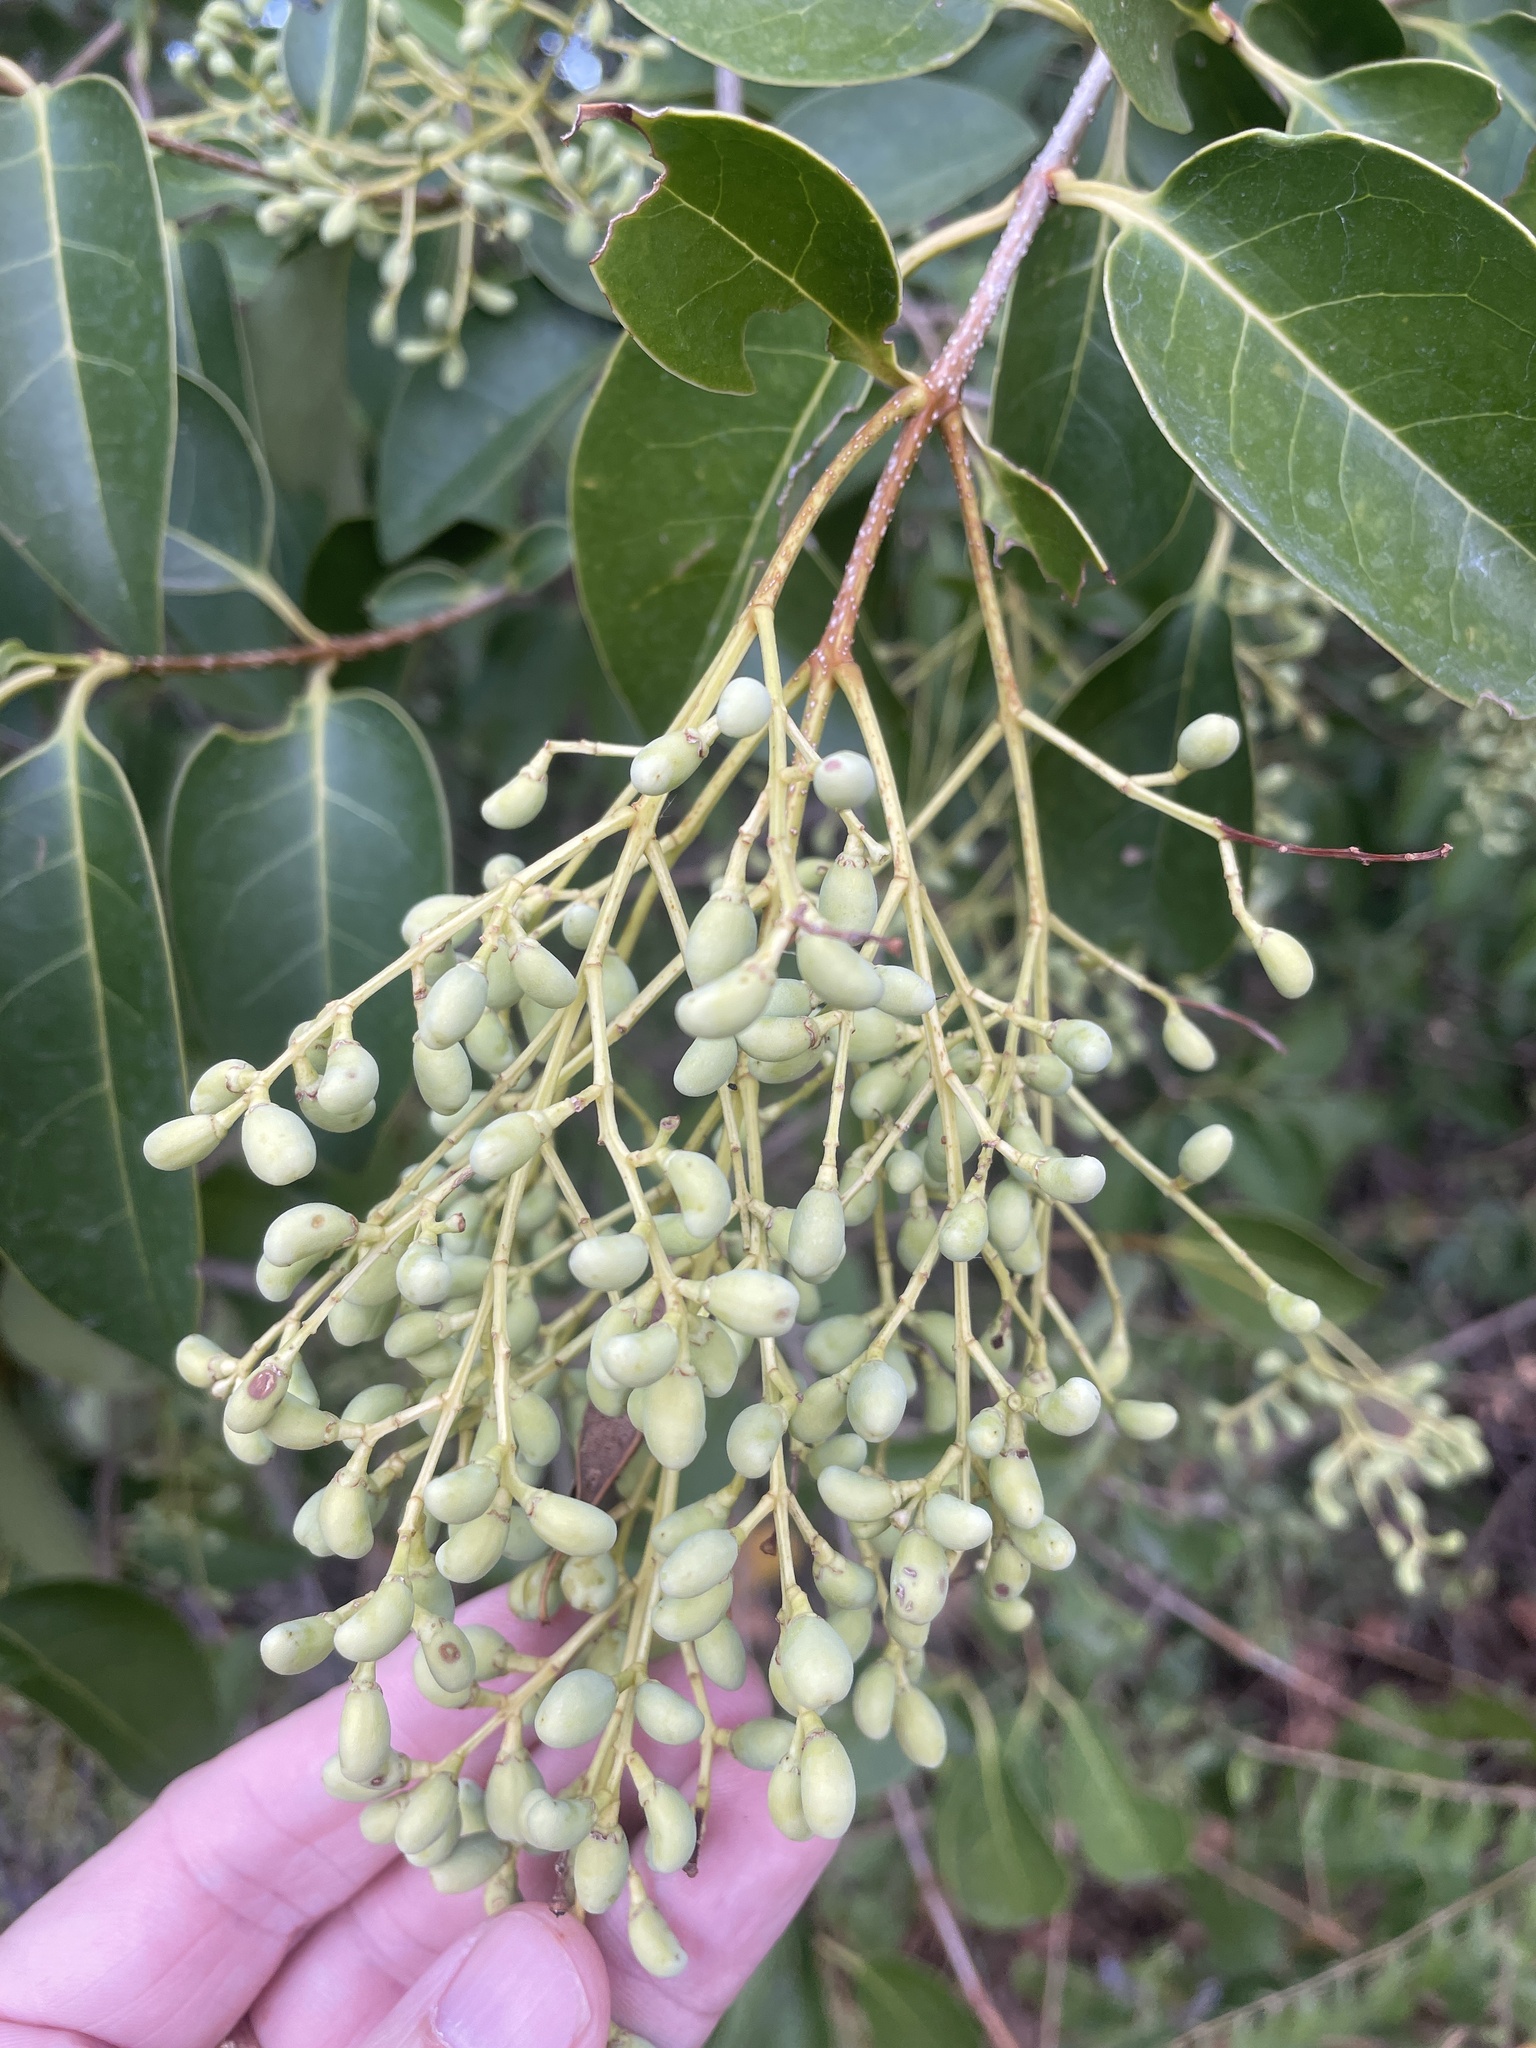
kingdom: Plantae
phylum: Tracheophyta
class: Magnoliopsida
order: Lamiales
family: Oleaceae
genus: Ligustrum
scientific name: Ligustrum lucidum
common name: Glossy privet
